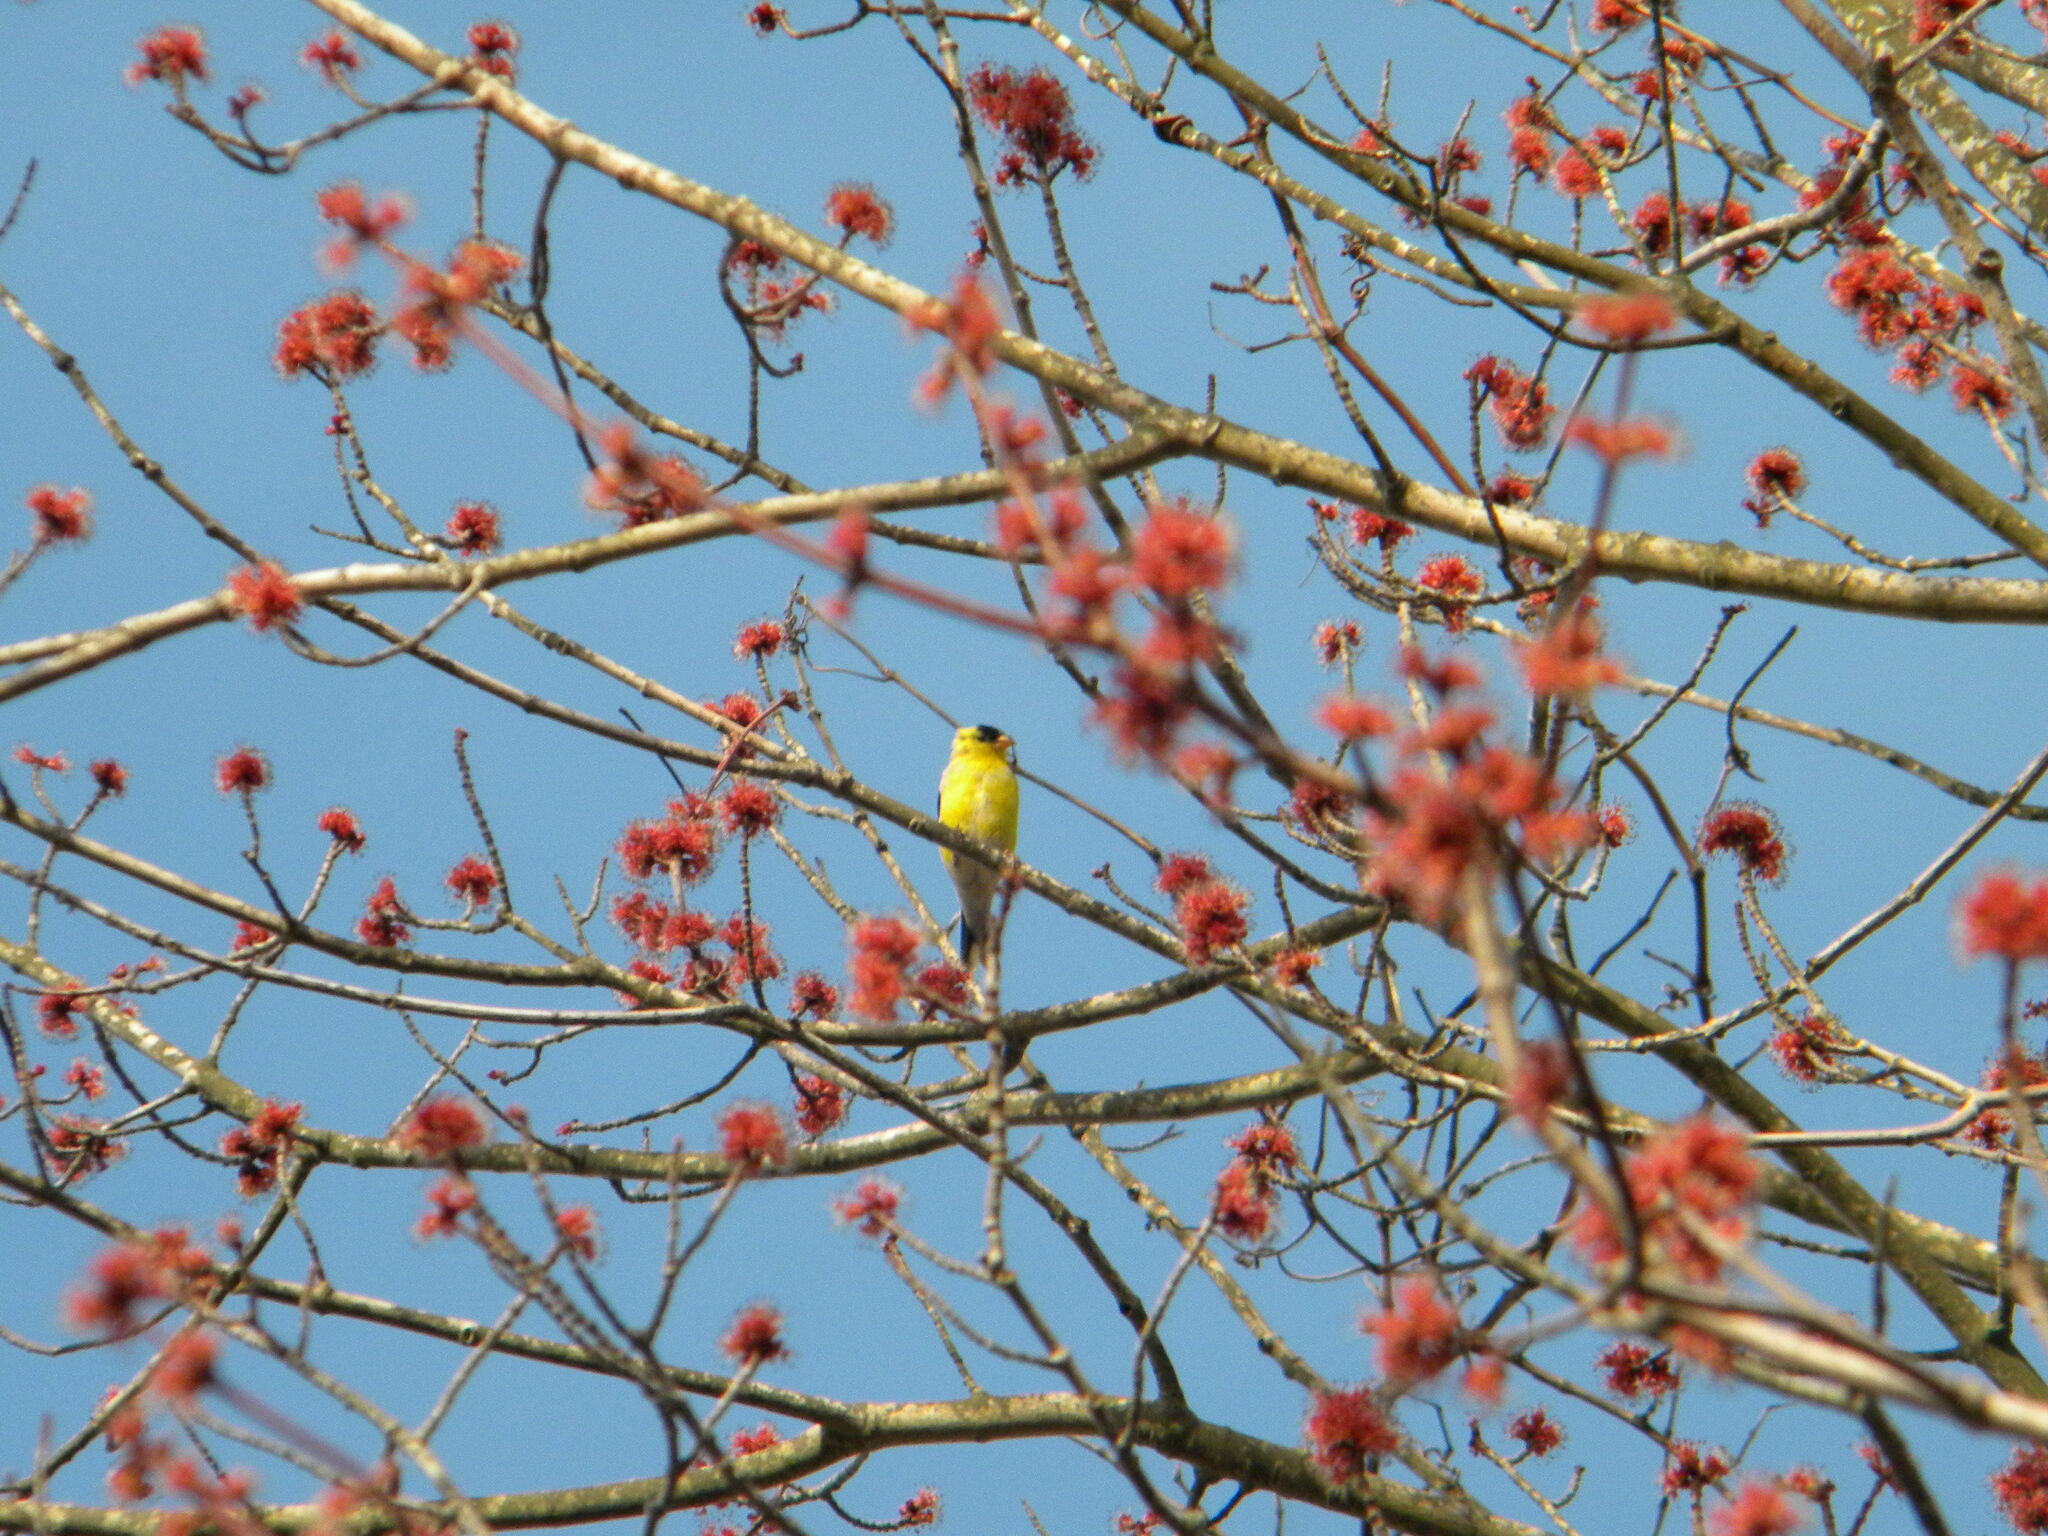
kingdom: Animalia
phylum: Chordata
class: Aves
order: Passeriformes
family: Fringillidae
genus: Spinus
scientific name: Spinus tristis
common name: American goldfinch
